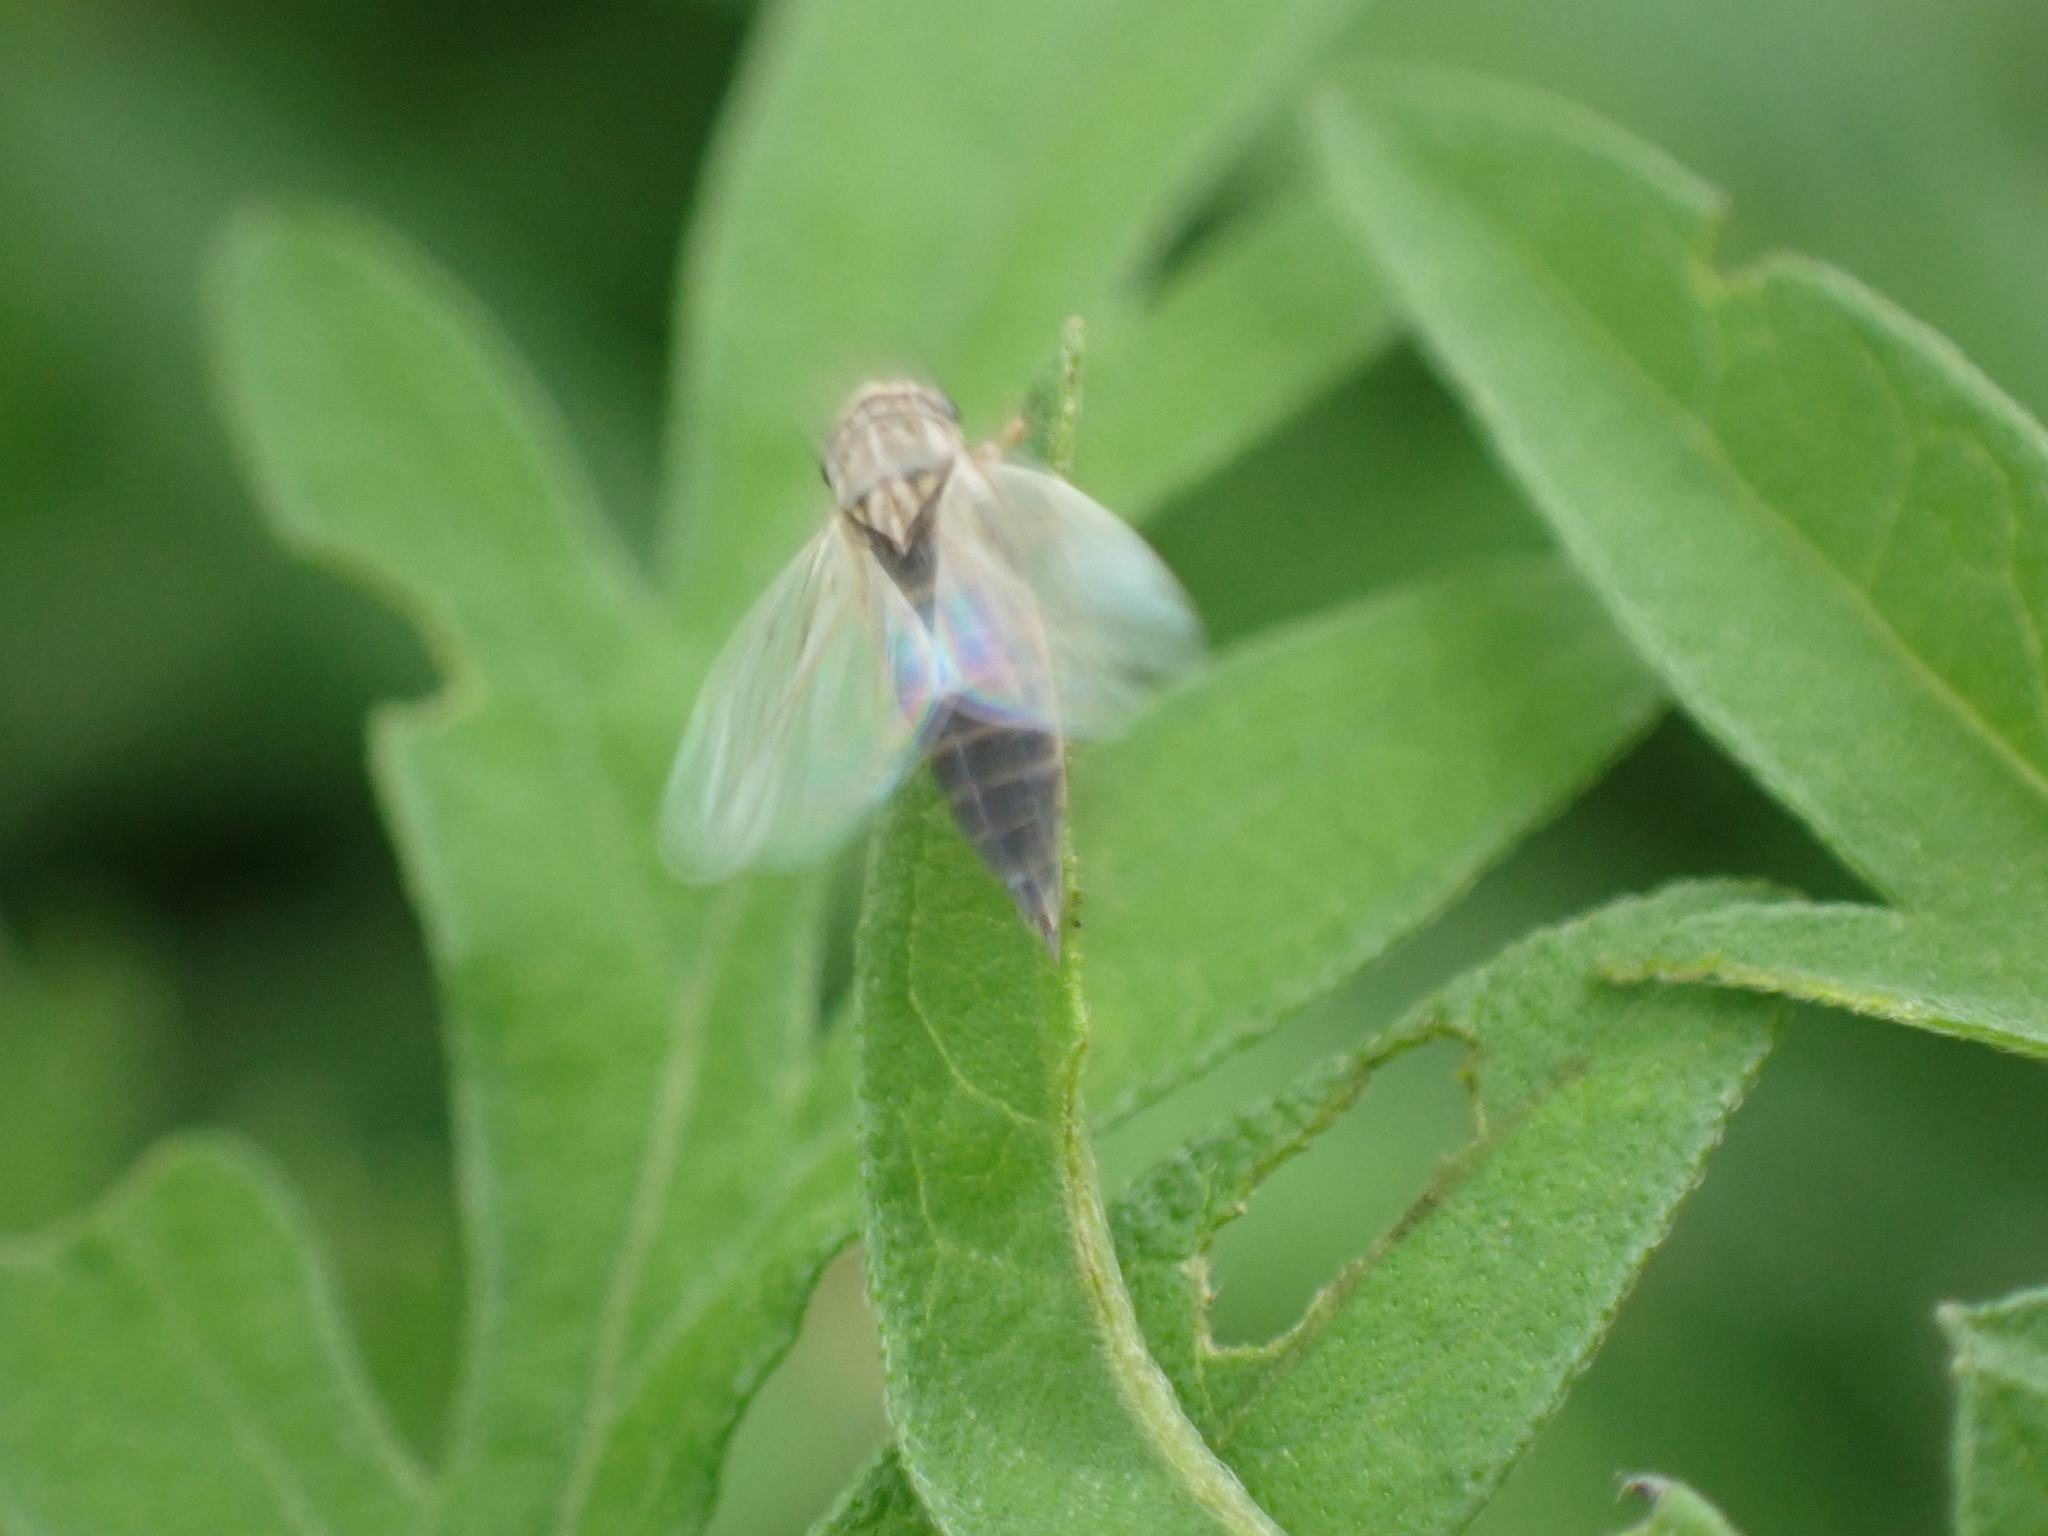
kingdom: Animalia
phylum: Arthropoda
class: Insecta
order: Hemiptera
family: Cicadellidae
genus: Exitianus
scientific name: Exitianus exitiosus
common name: Gray lawn leafhopper
